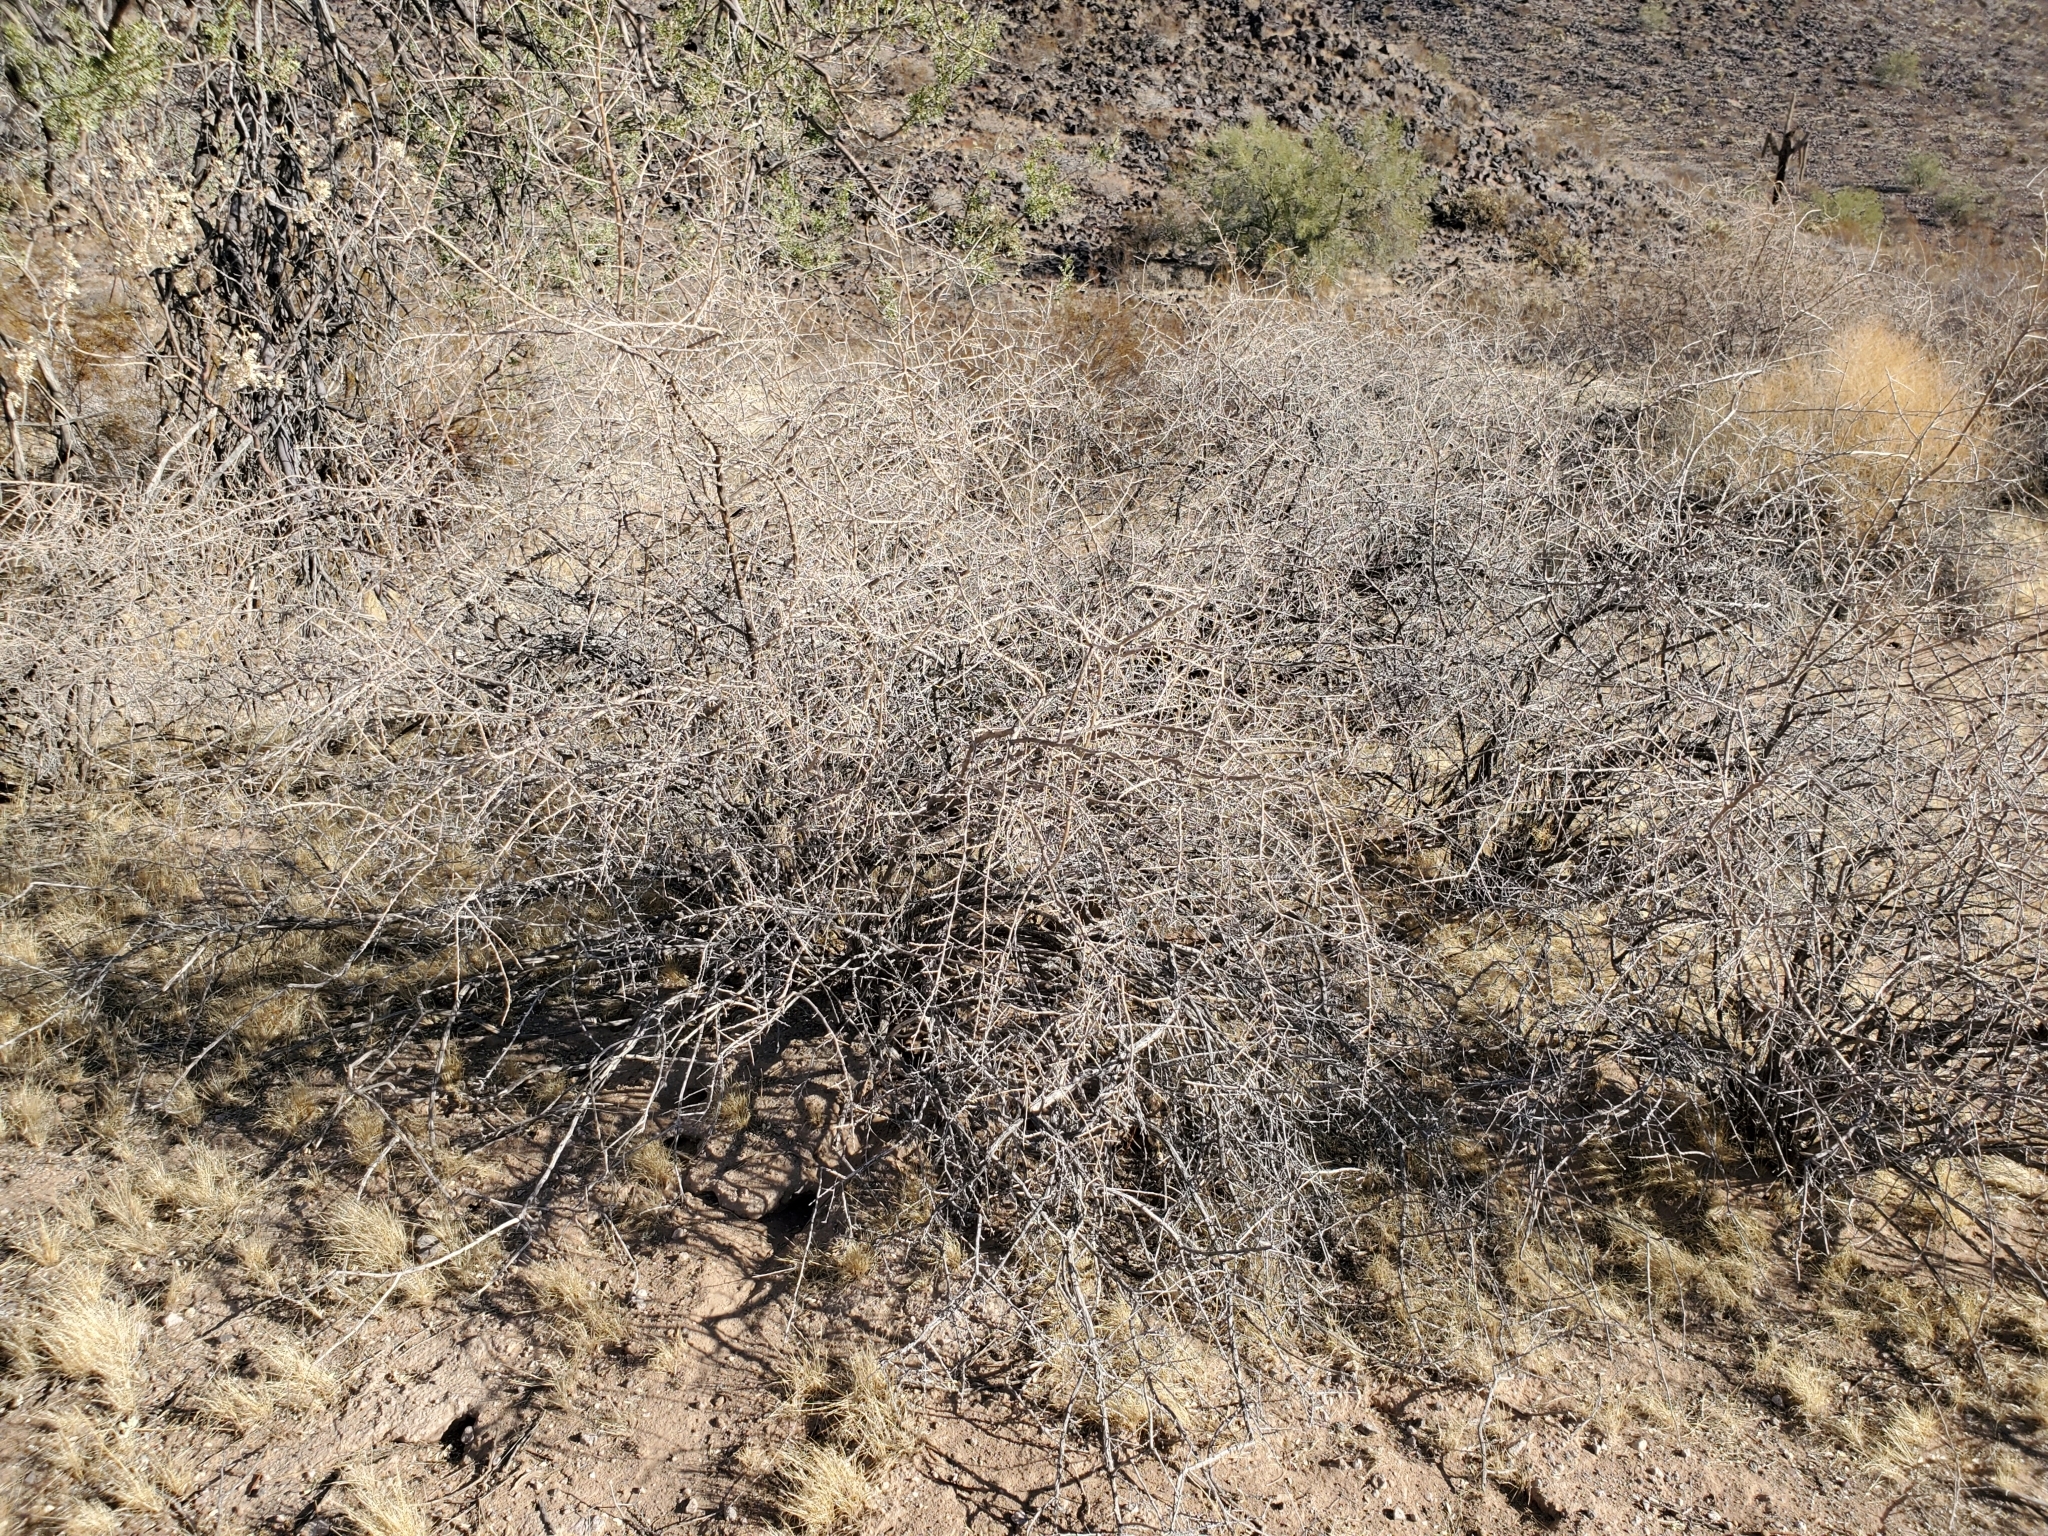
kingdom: Plantae
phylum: Tracheophyta
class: Magnoliopsida
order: Solanales
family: Solanaceae
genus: Lycium
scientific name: Lycium andersonii
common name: Water-jacket
